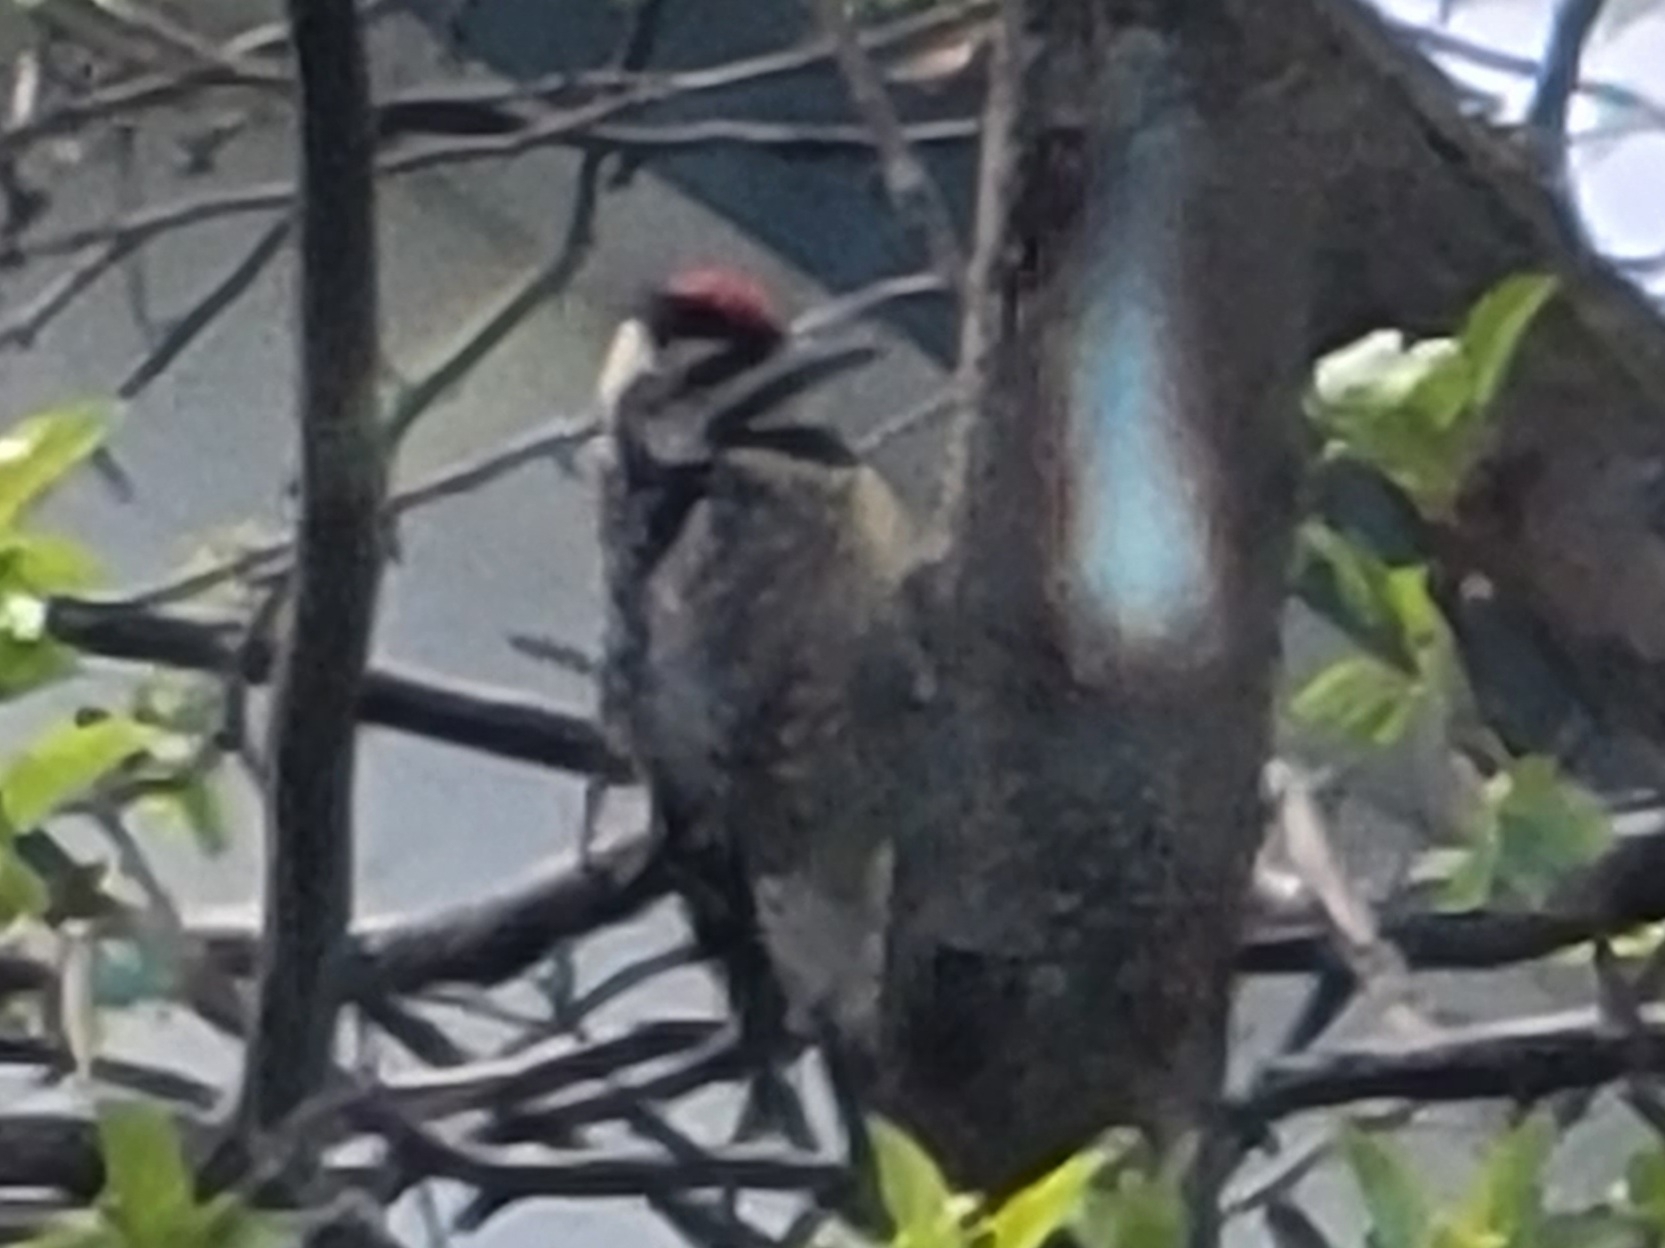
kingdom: Animalia
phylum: Chordata
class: Aves
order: Piciformes
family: Picidae
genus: Sphyrapicus
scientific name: Sphyrapicus varius
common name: Yellow-bellied sapsucker
